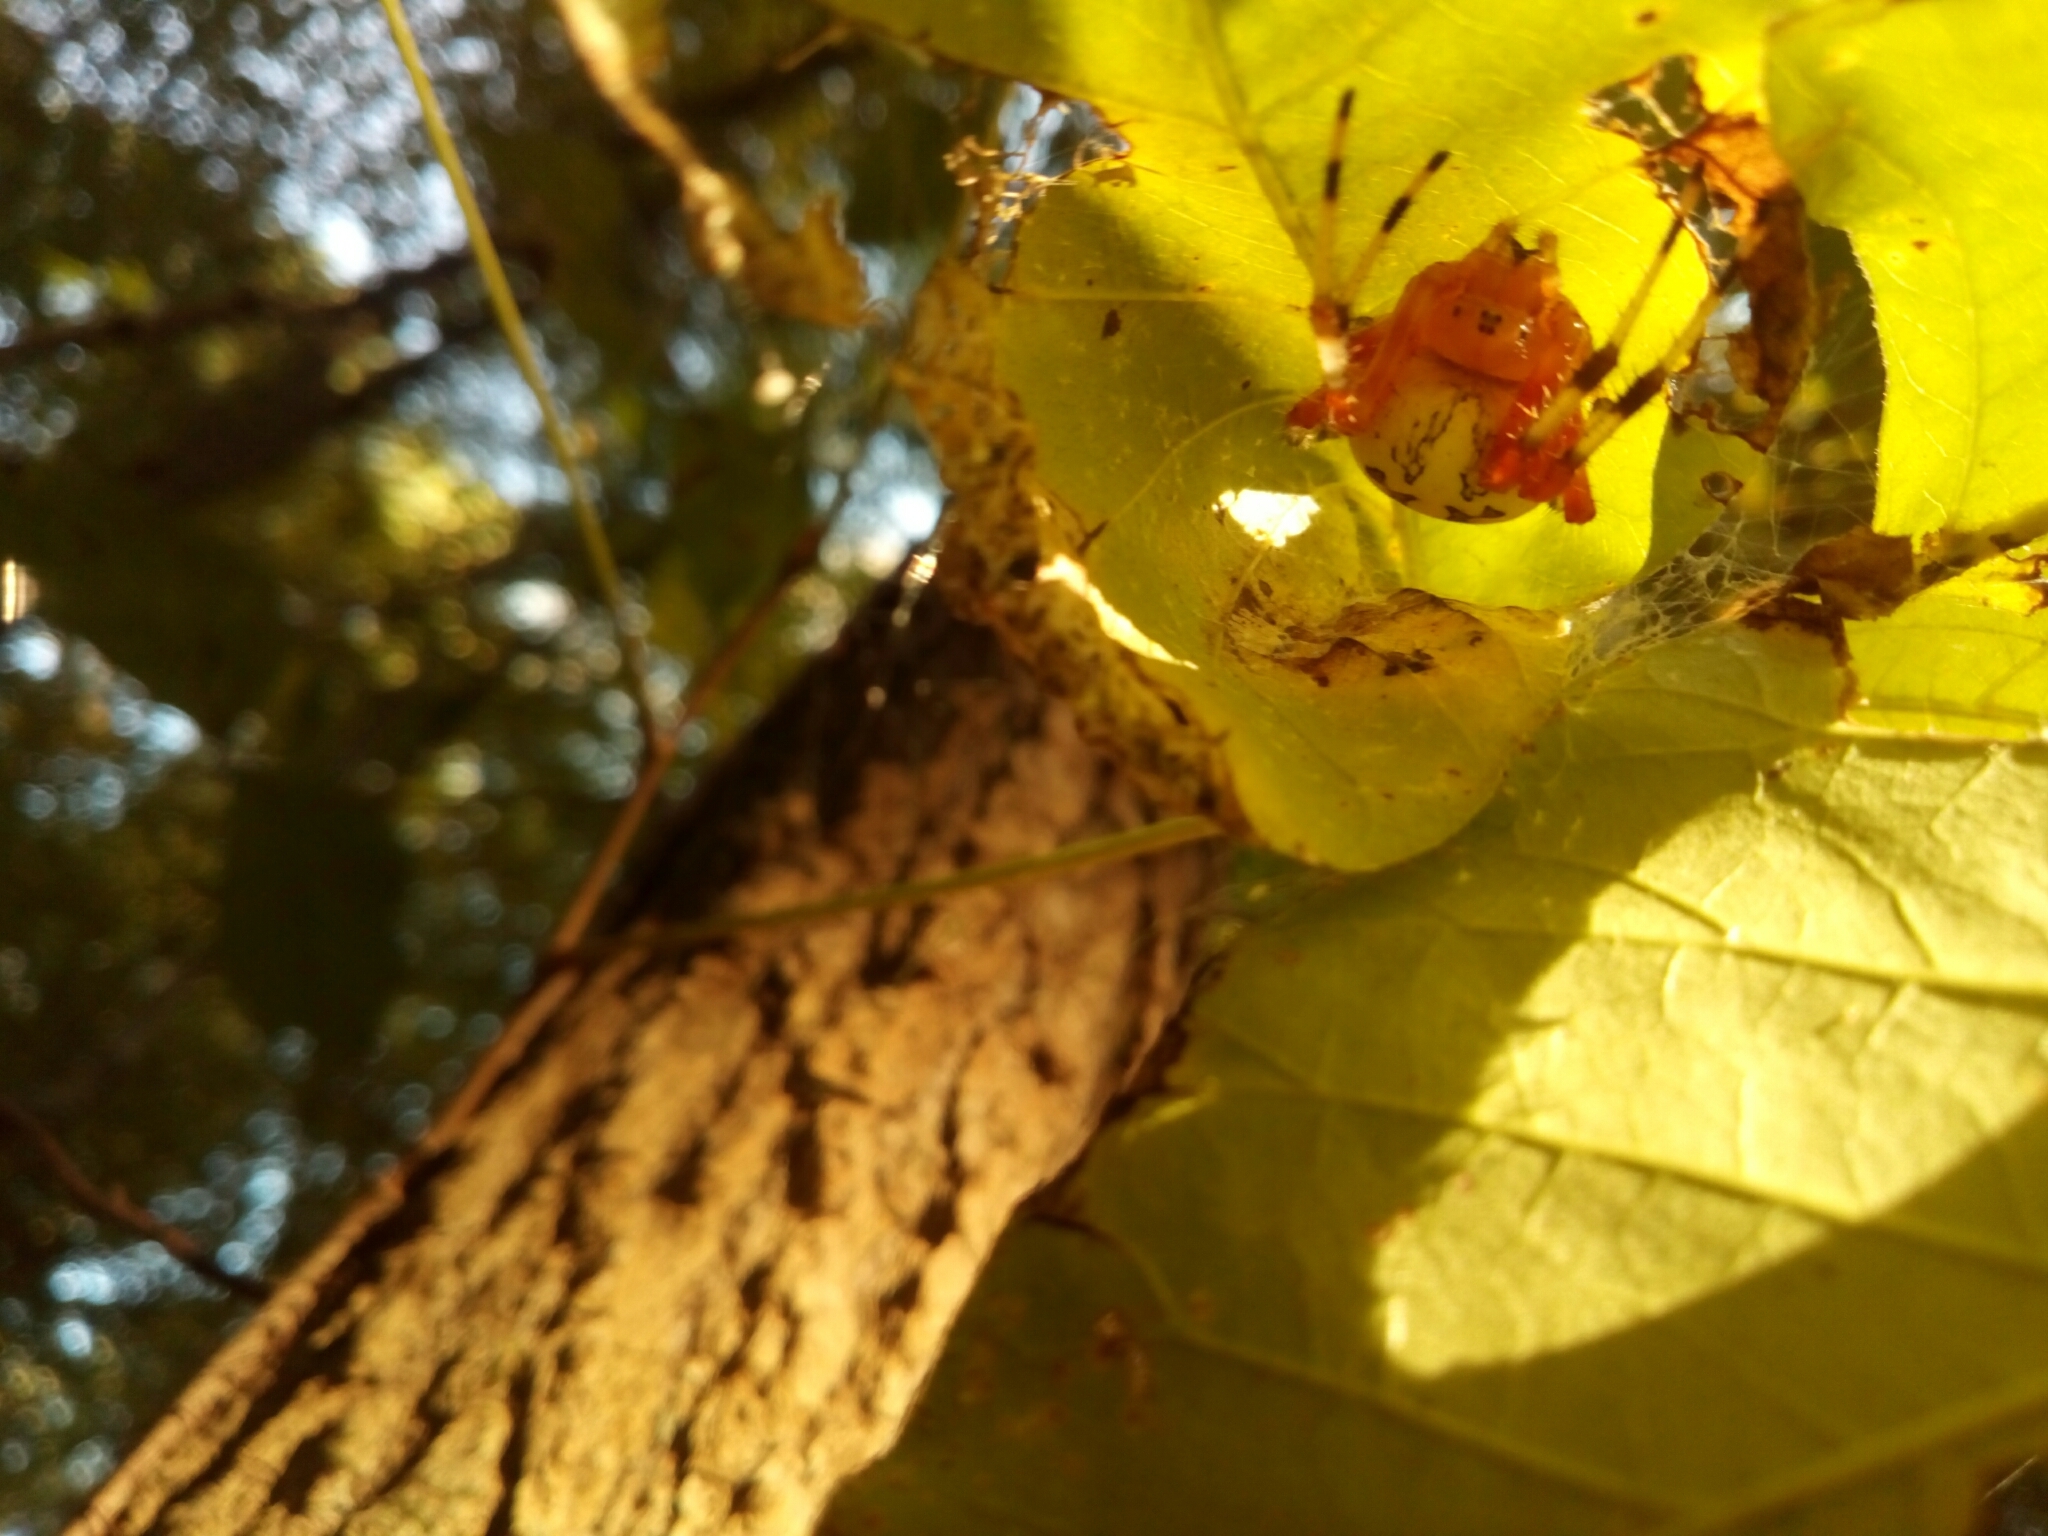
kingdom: Animalia
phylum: Arthropoda
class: Arachnida
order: Araneae
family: Araneidae
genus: Araneus
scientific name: Araneus marmoreus
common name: Marbled orbweaver
